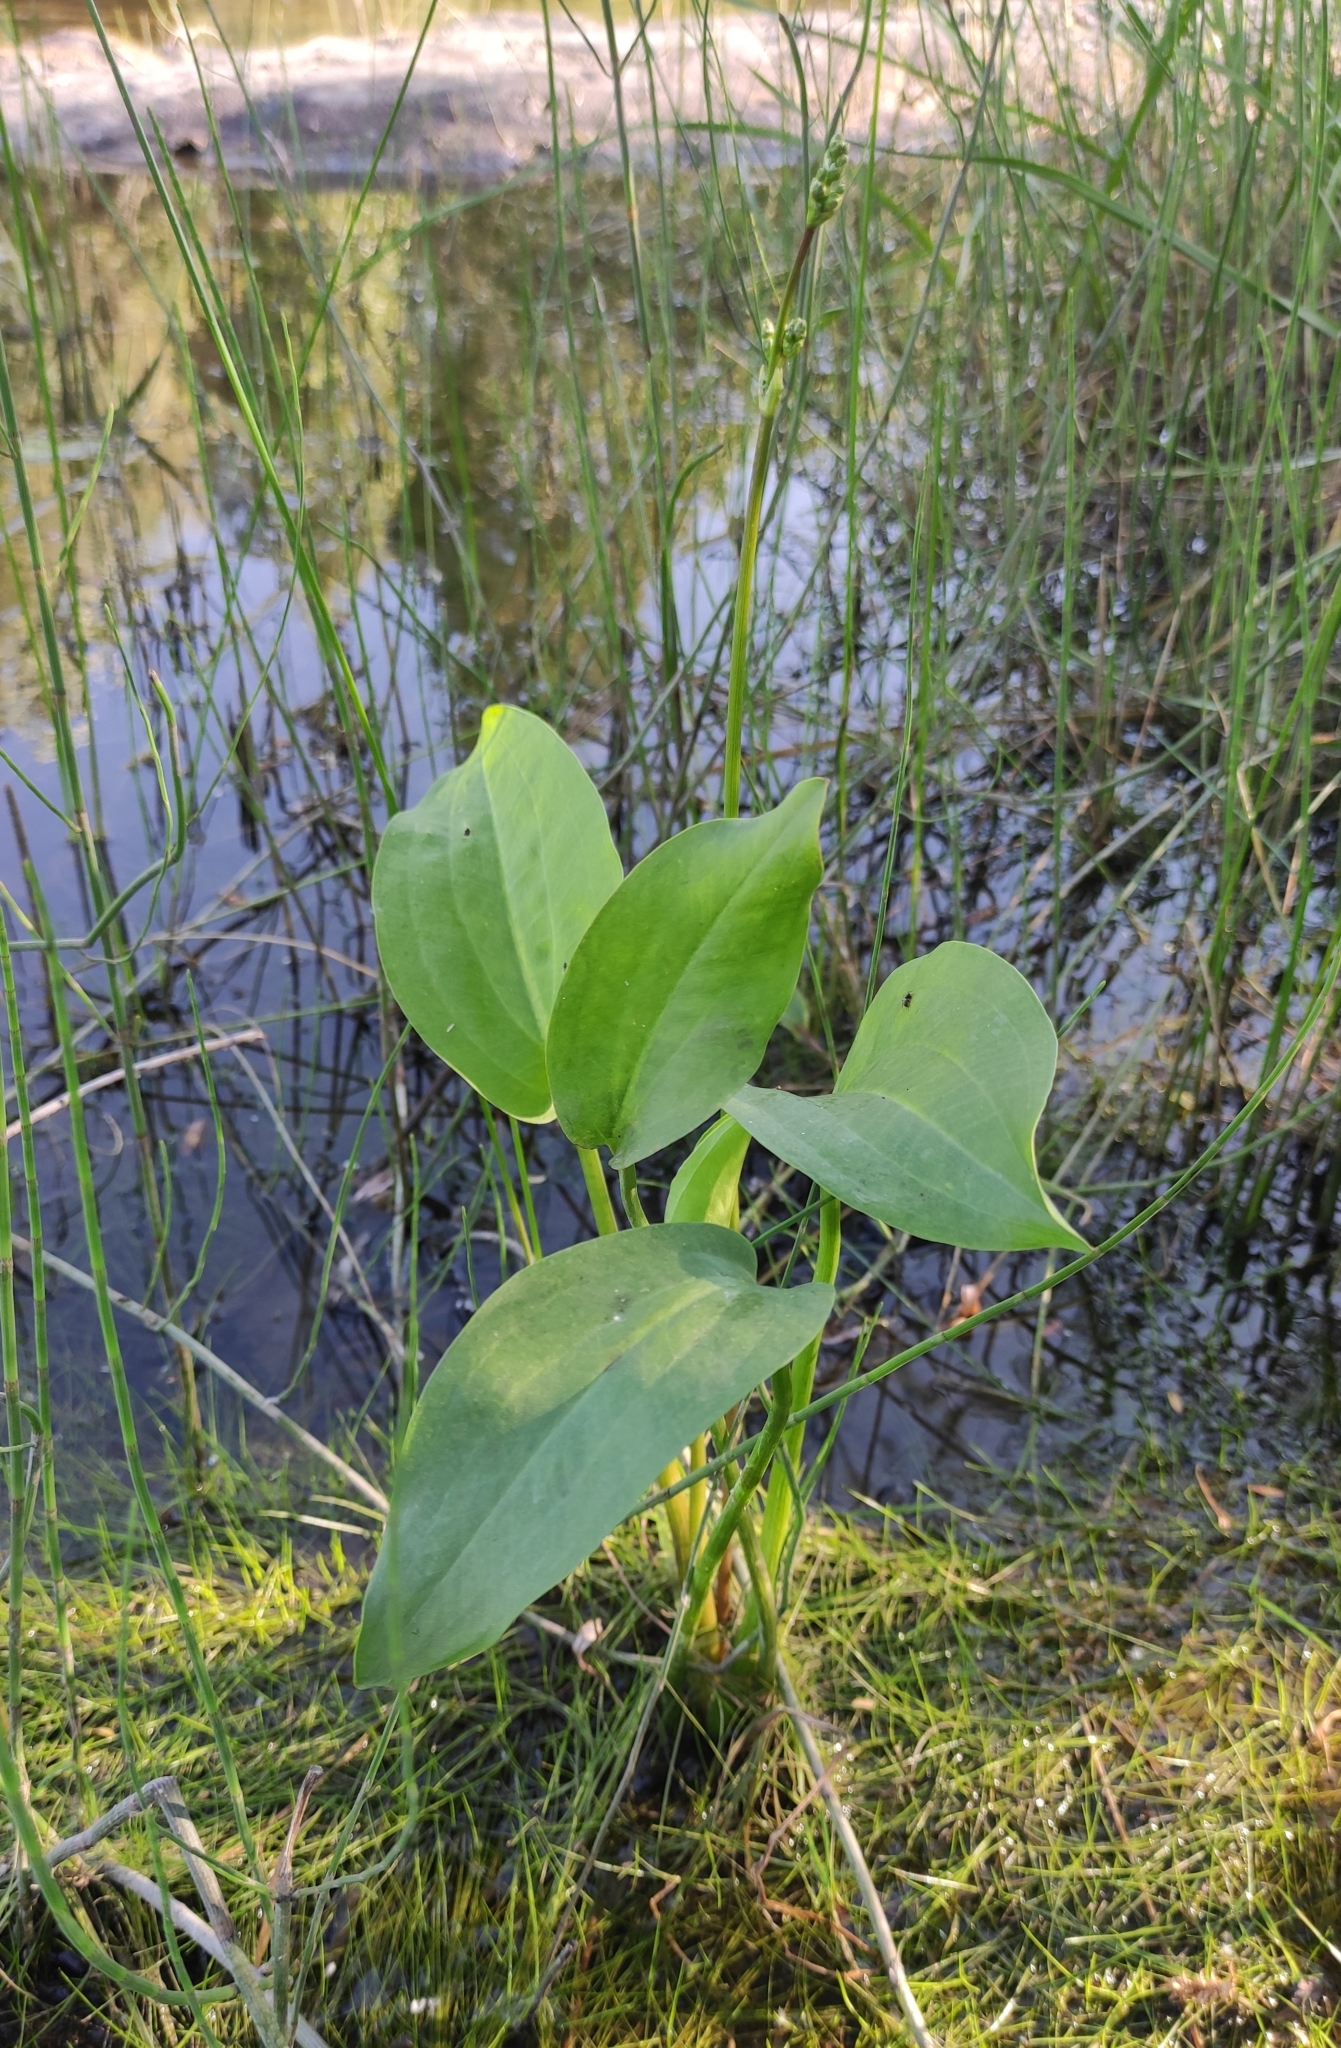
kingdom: Plantae
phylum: Tracheophyta
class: Liliopsida
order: Alismatales
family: Alismataceae
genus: Alisma
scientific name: Alisma plantago-aquatica
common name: Water-plantain
